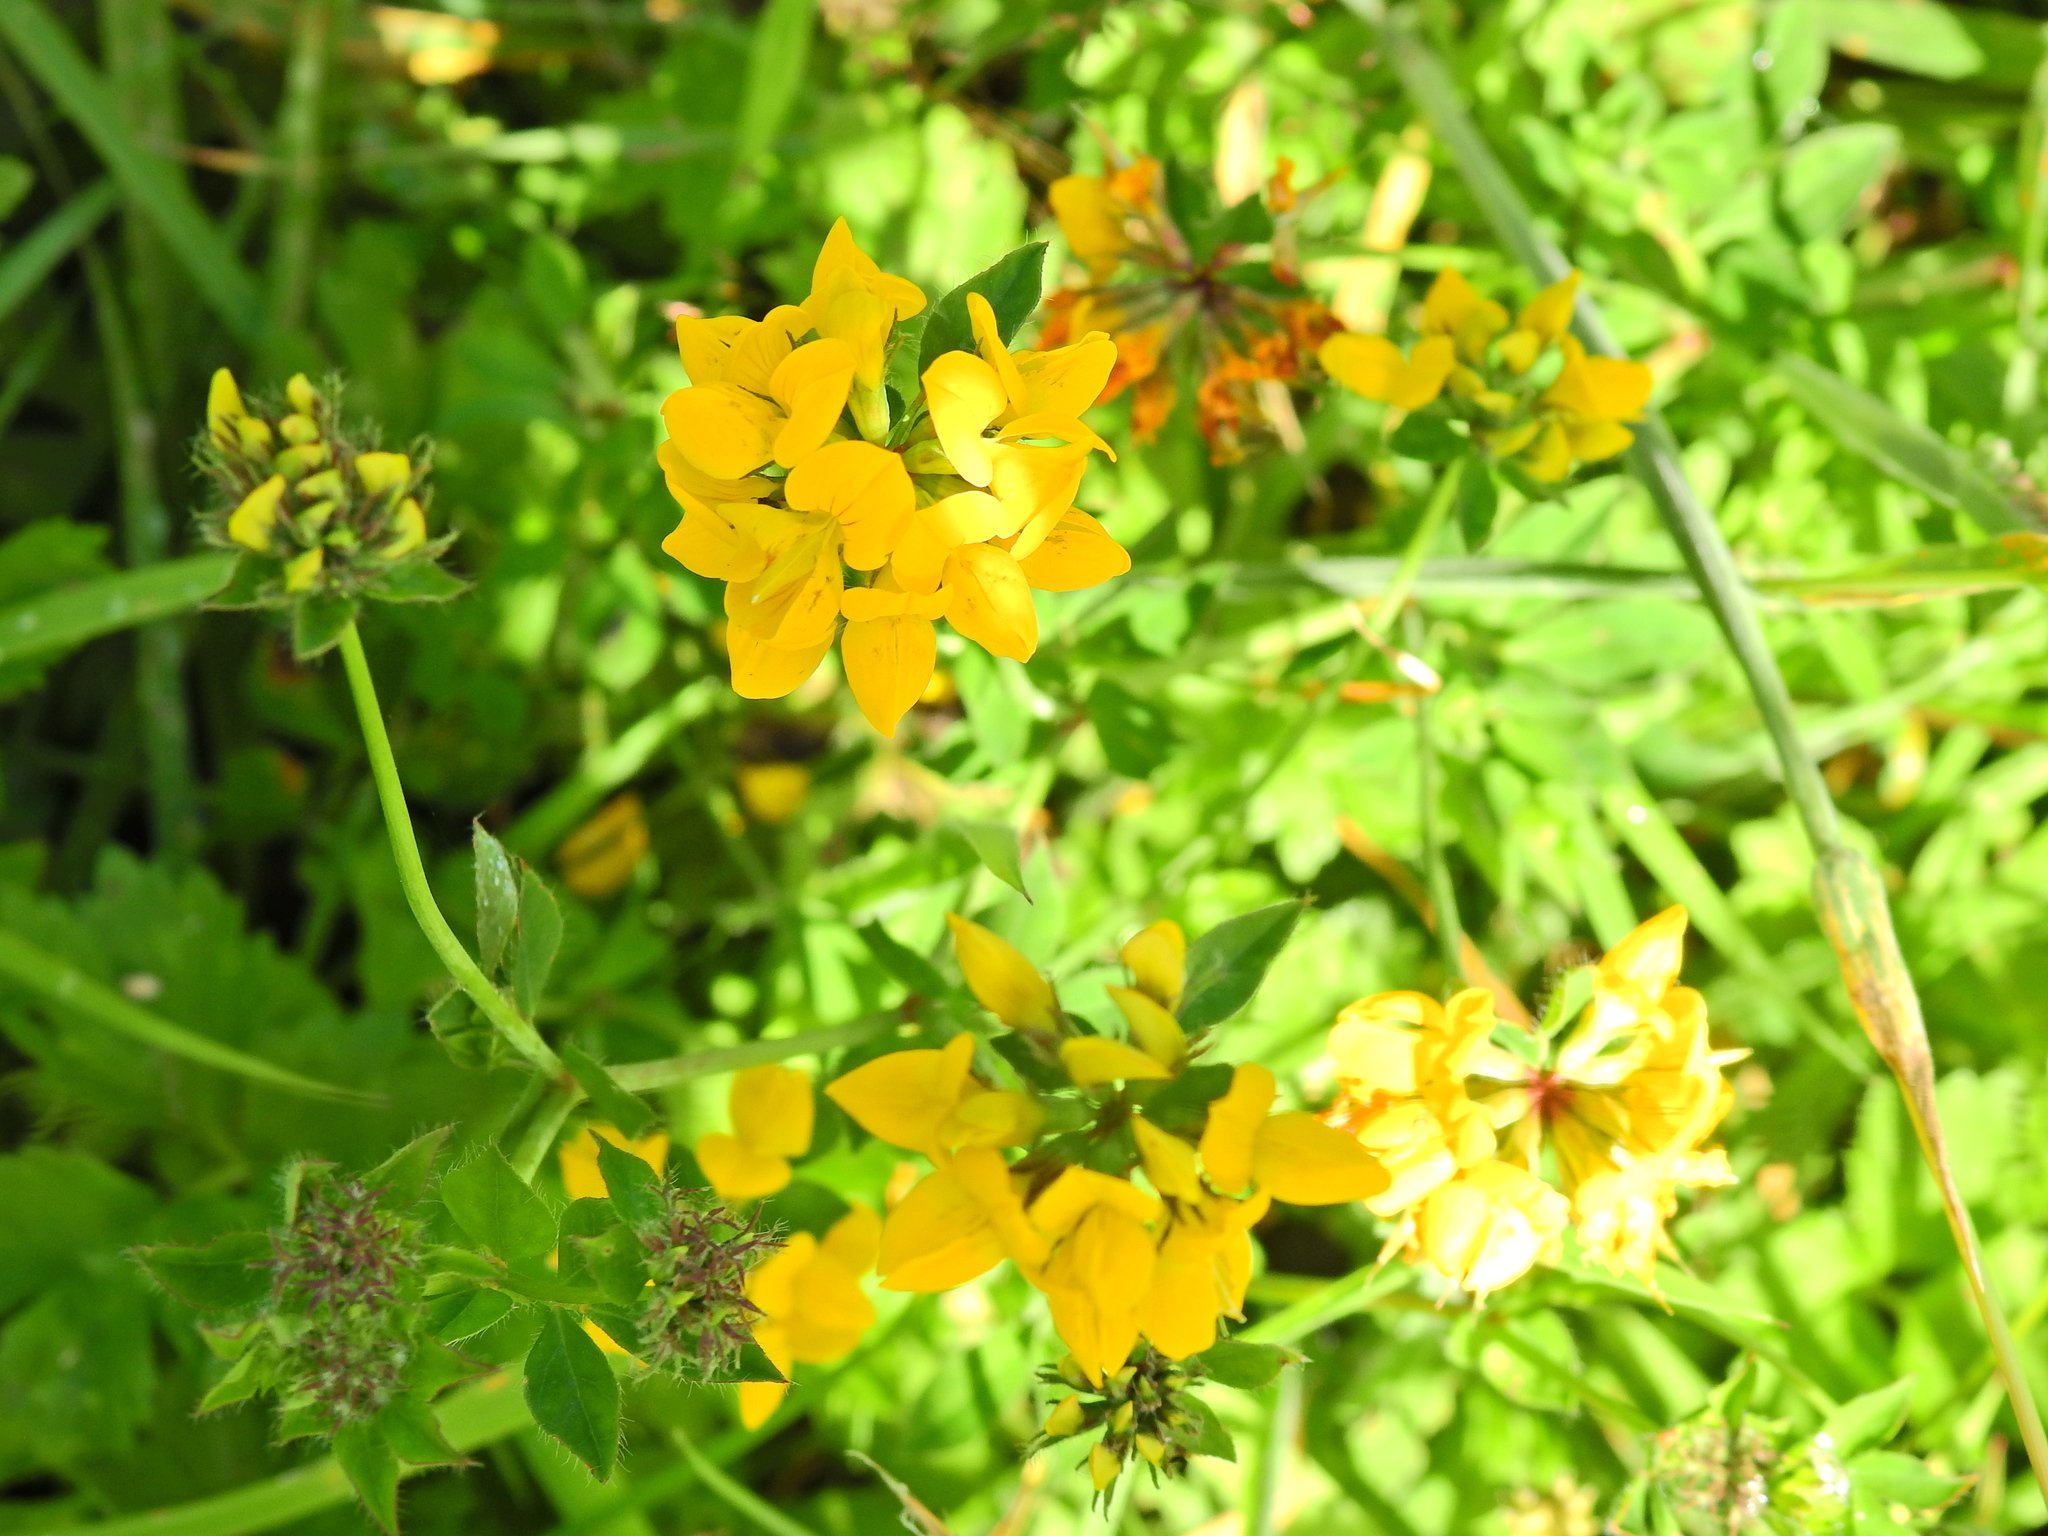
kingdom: Plantae
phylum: Tracheophyta
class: Magnoliopsida
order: Fabales
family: Fabaceae
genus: Lotus
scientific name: Lotus pedunculatus
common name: Greater birdsfoot-trefoil
